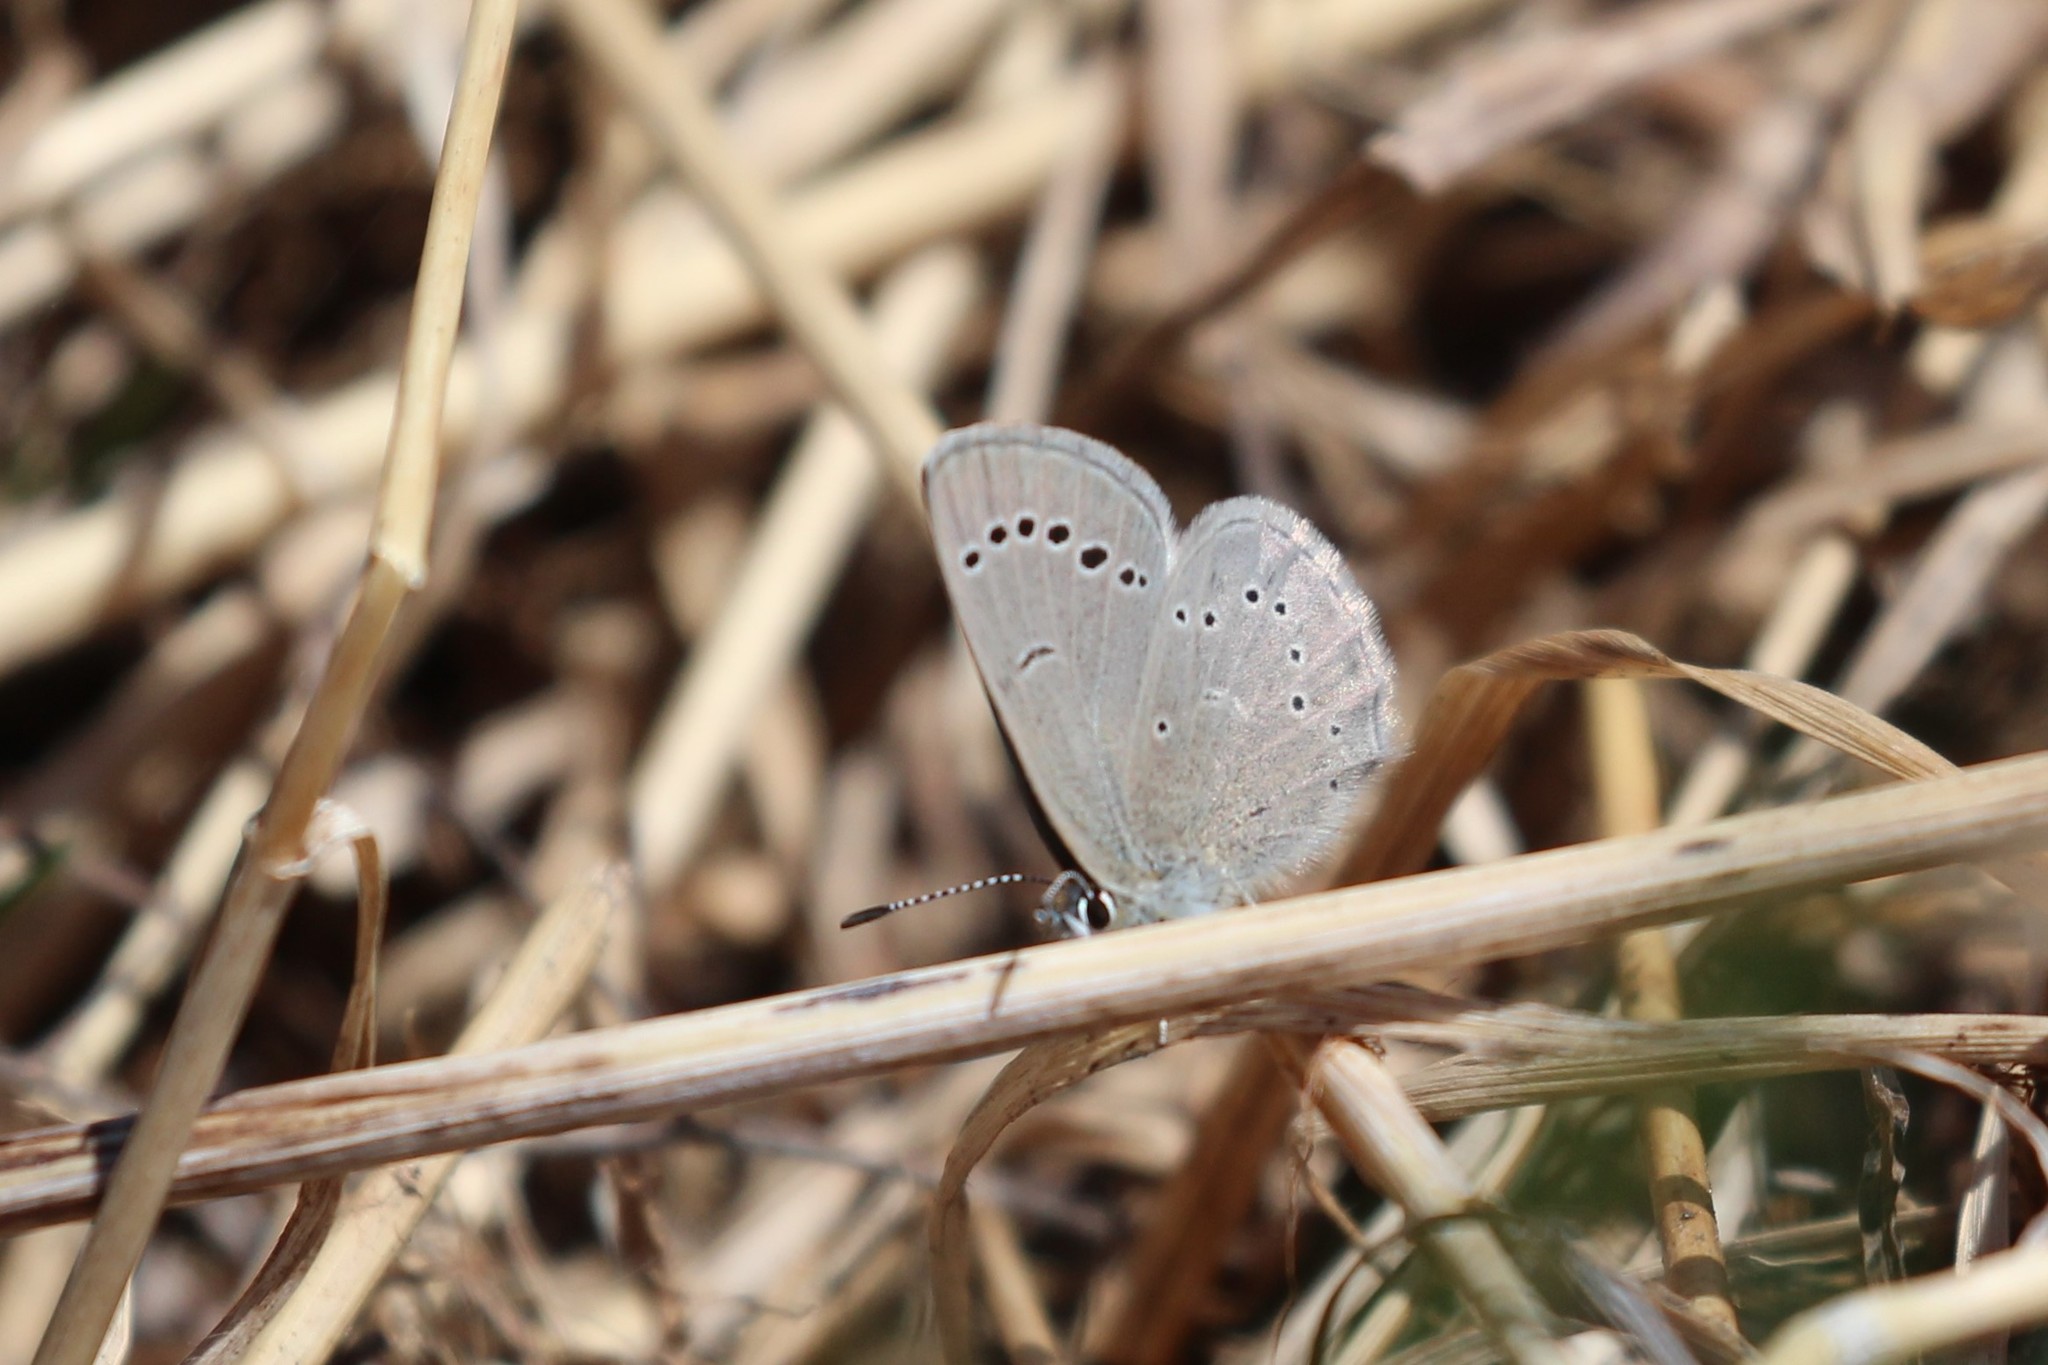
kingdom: Animalia
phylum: Arthropoda
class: Insecta
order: Lepidoptera
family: Lycaenidae
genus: Glaucopsyche
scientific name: Glaucopsyche lygdamus
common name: Silvery blue
